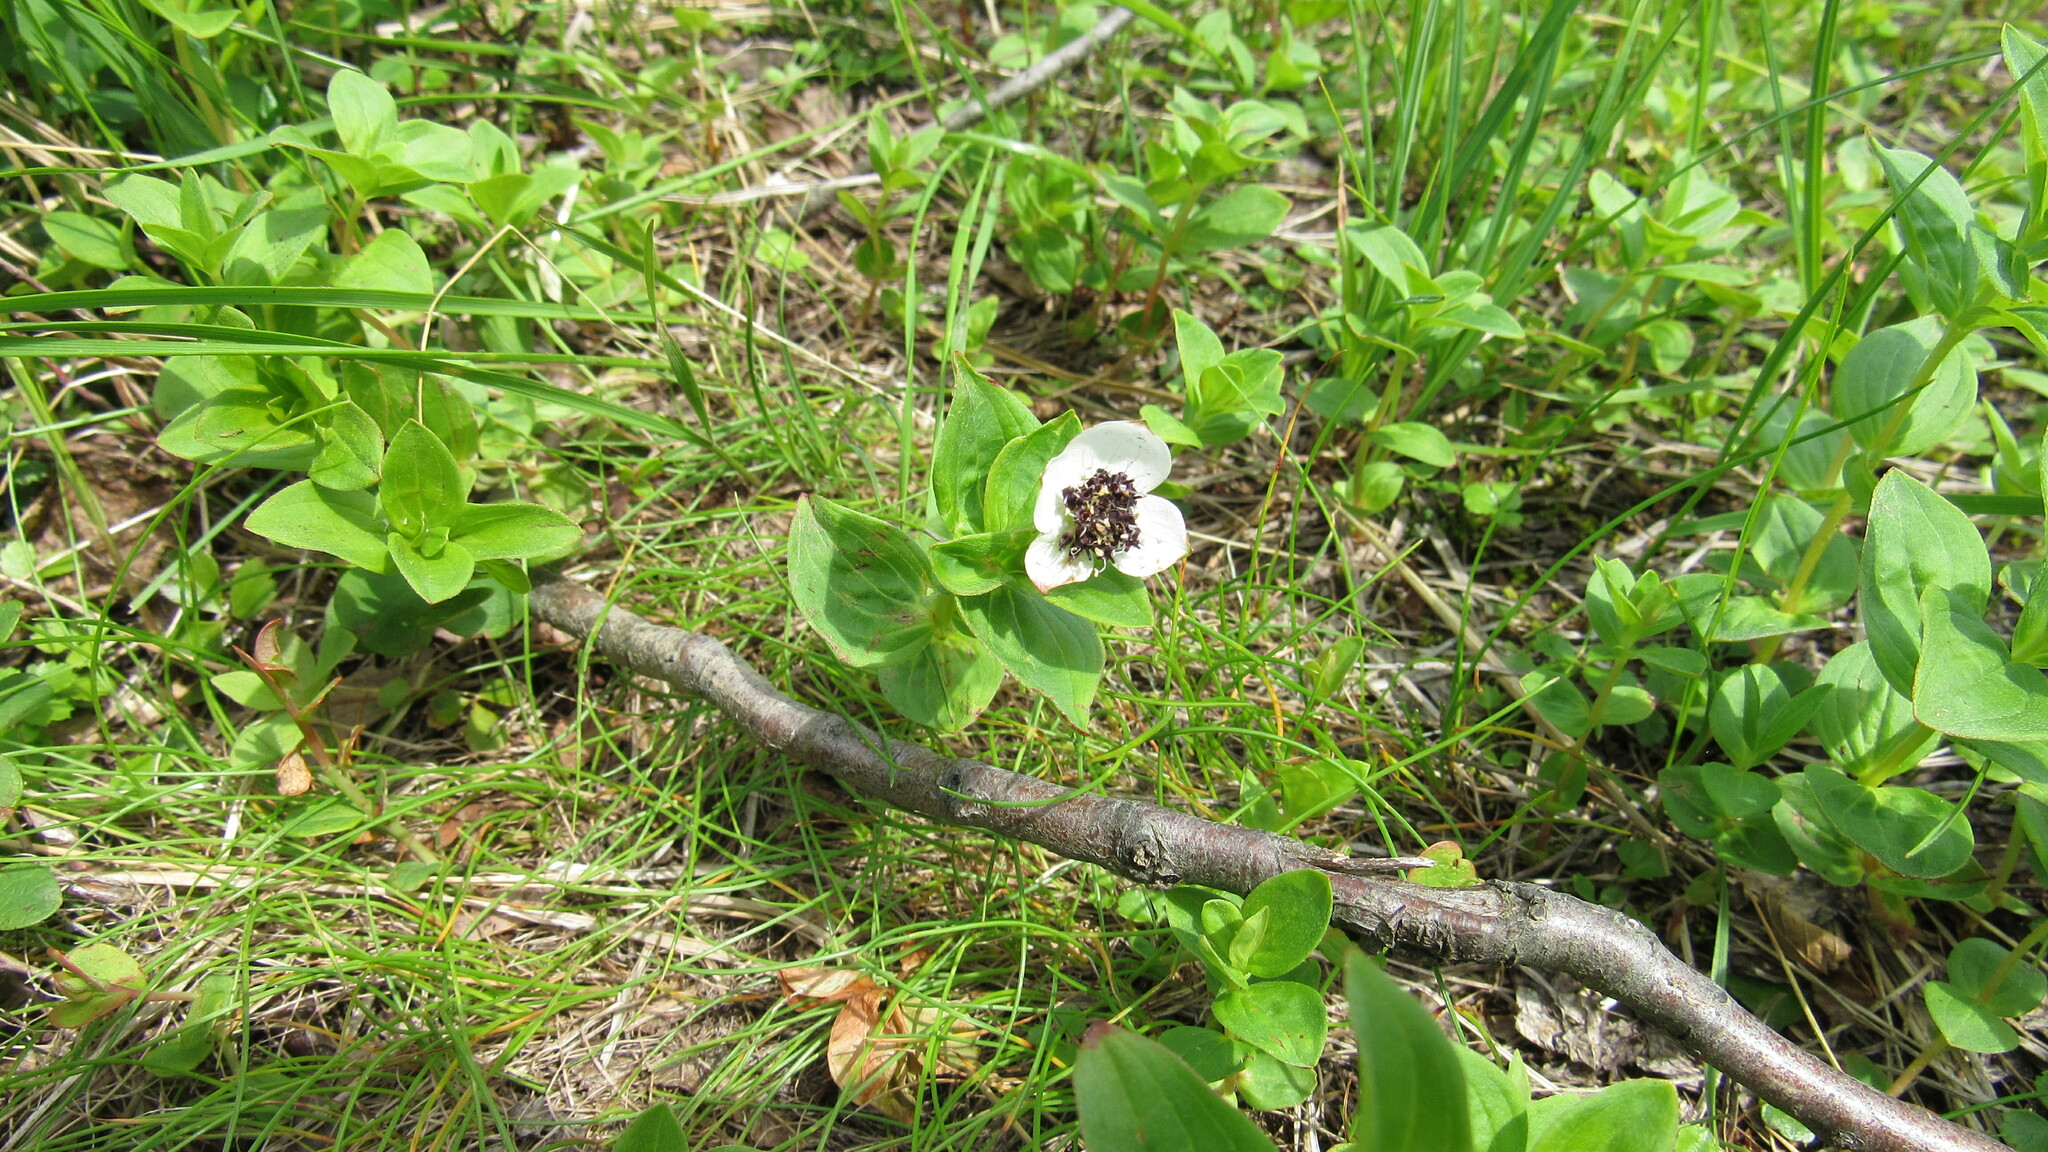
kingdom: Plantae
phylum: Tracheophyta
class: Magnoliopsida
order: Cornales
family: Cornaceae
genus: Cornus
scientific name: Cornus suecica
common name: Dwarf cornel
